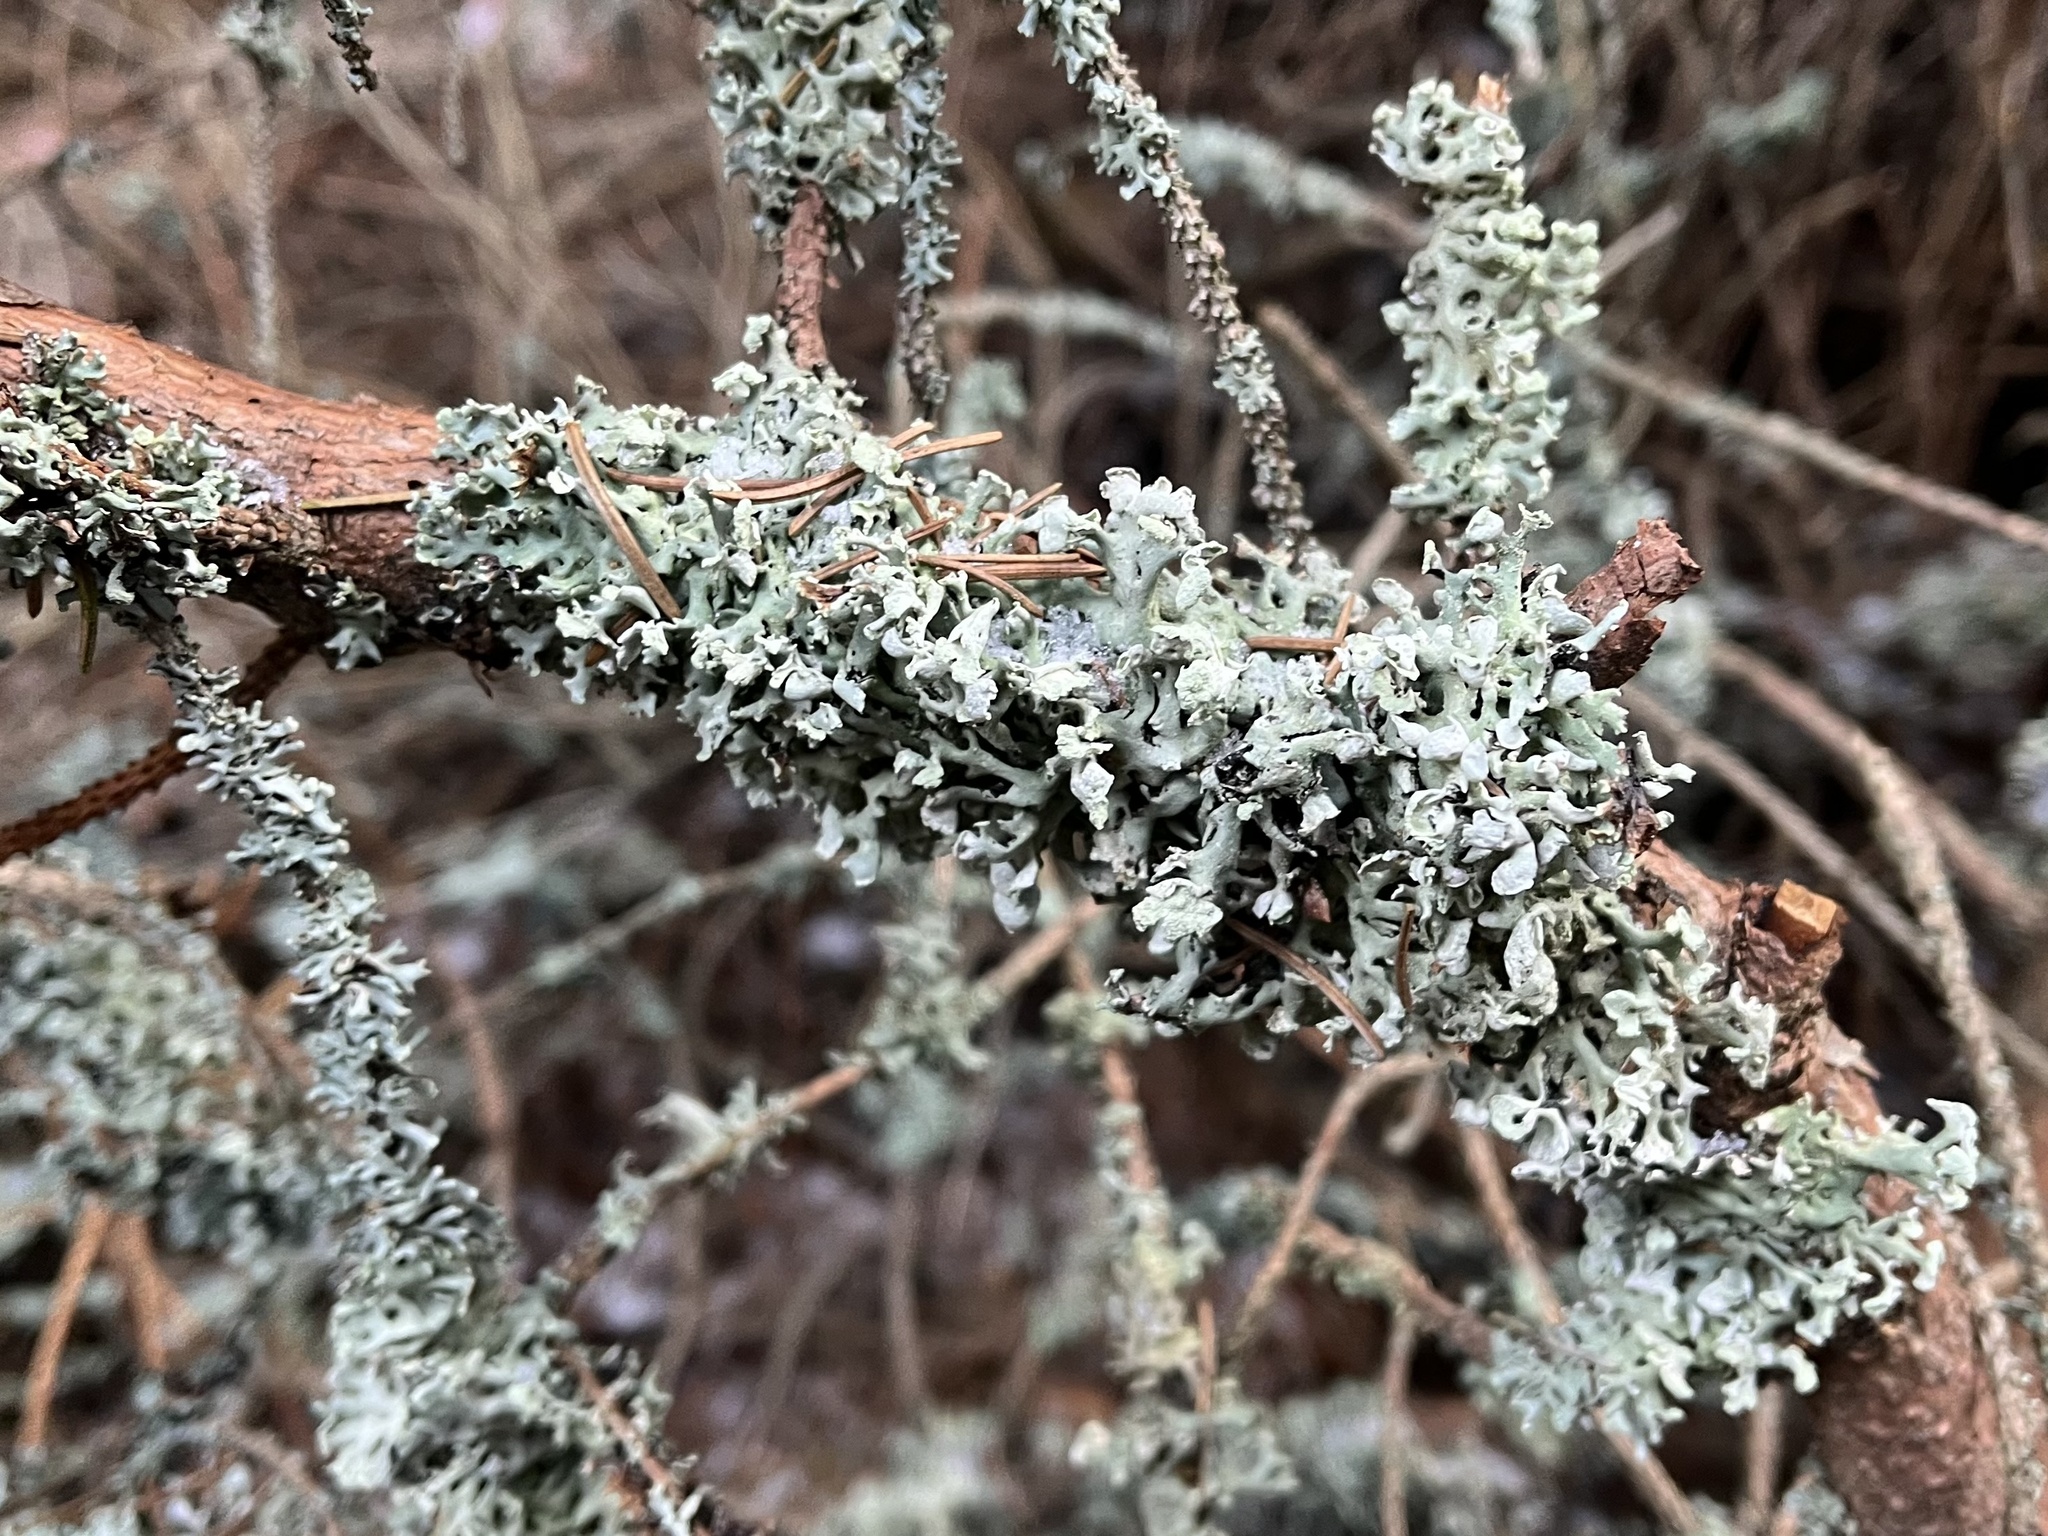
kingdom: Fungi
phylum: Ascomycota
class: Lecanoromycetes
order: Lecanorales
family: Parmeliaceae
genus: Hypogymnia
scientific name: Hypogymnia physodes
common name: Dark crottle
